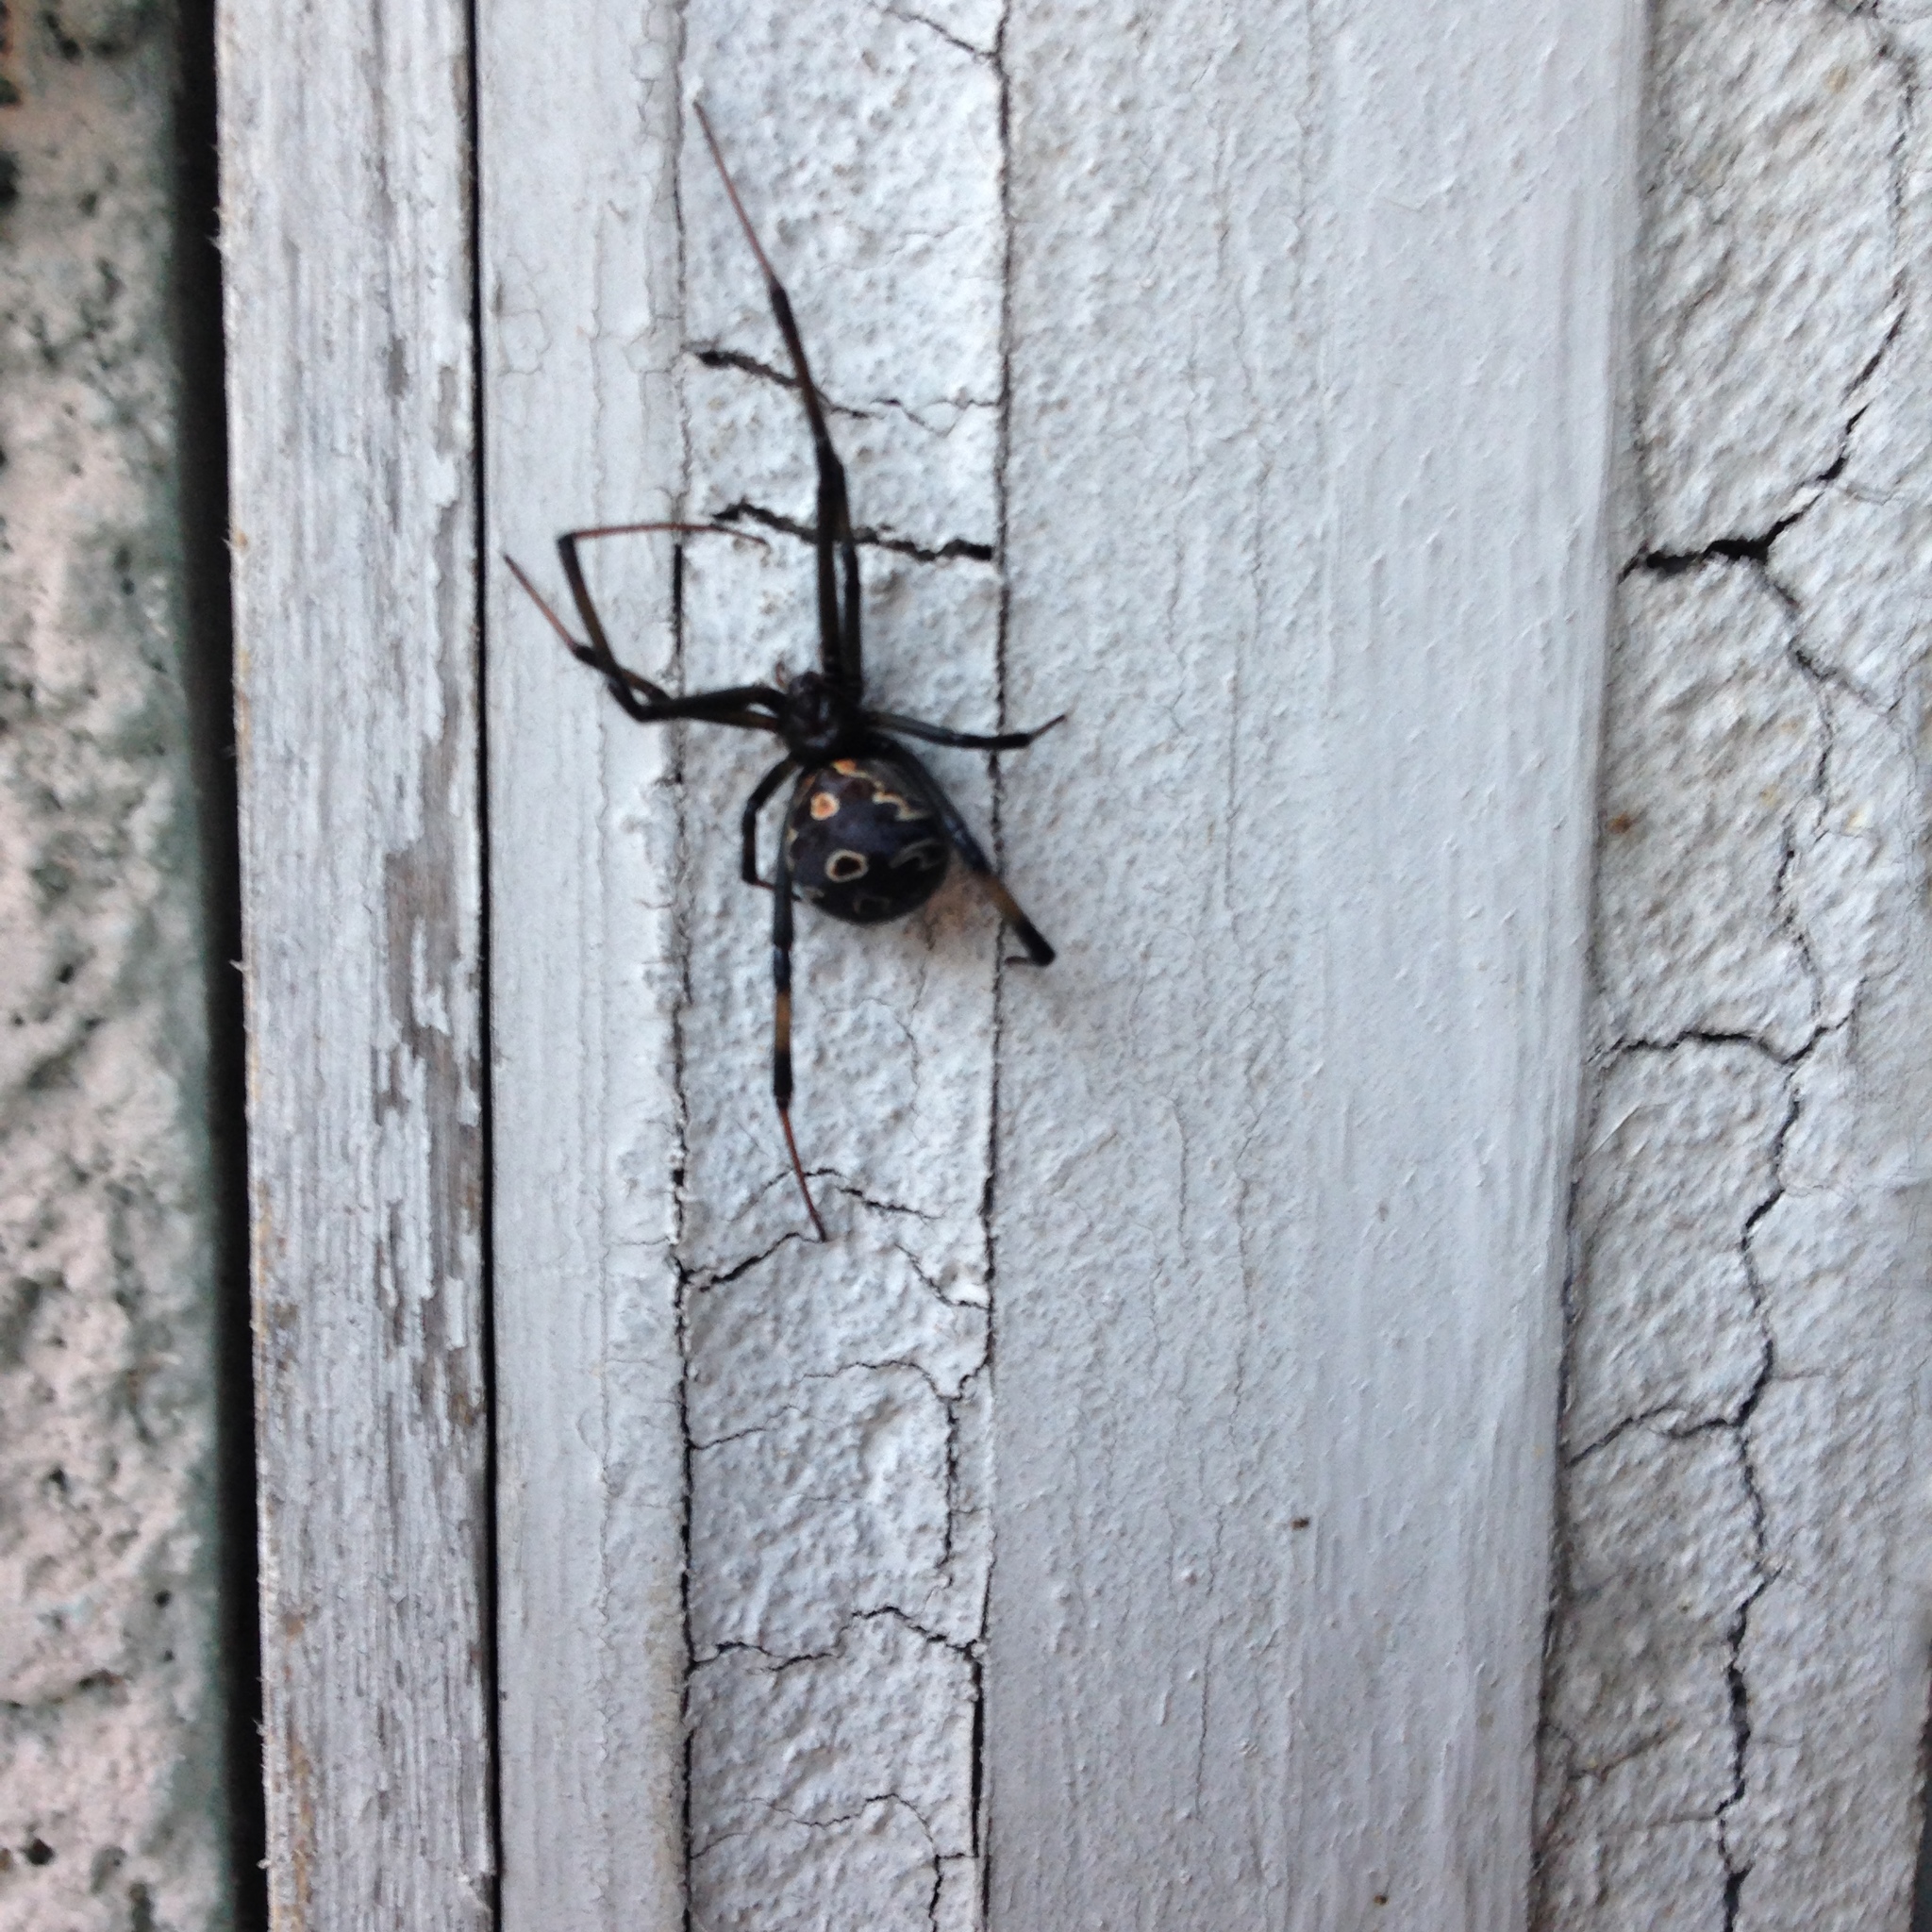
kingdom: Animalia
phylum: Arthropoda
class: Arachnida
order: Araneae
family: Theridiidae
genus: Latrodectus
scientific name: Latrodectus geometricus
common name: Brown widow spider
